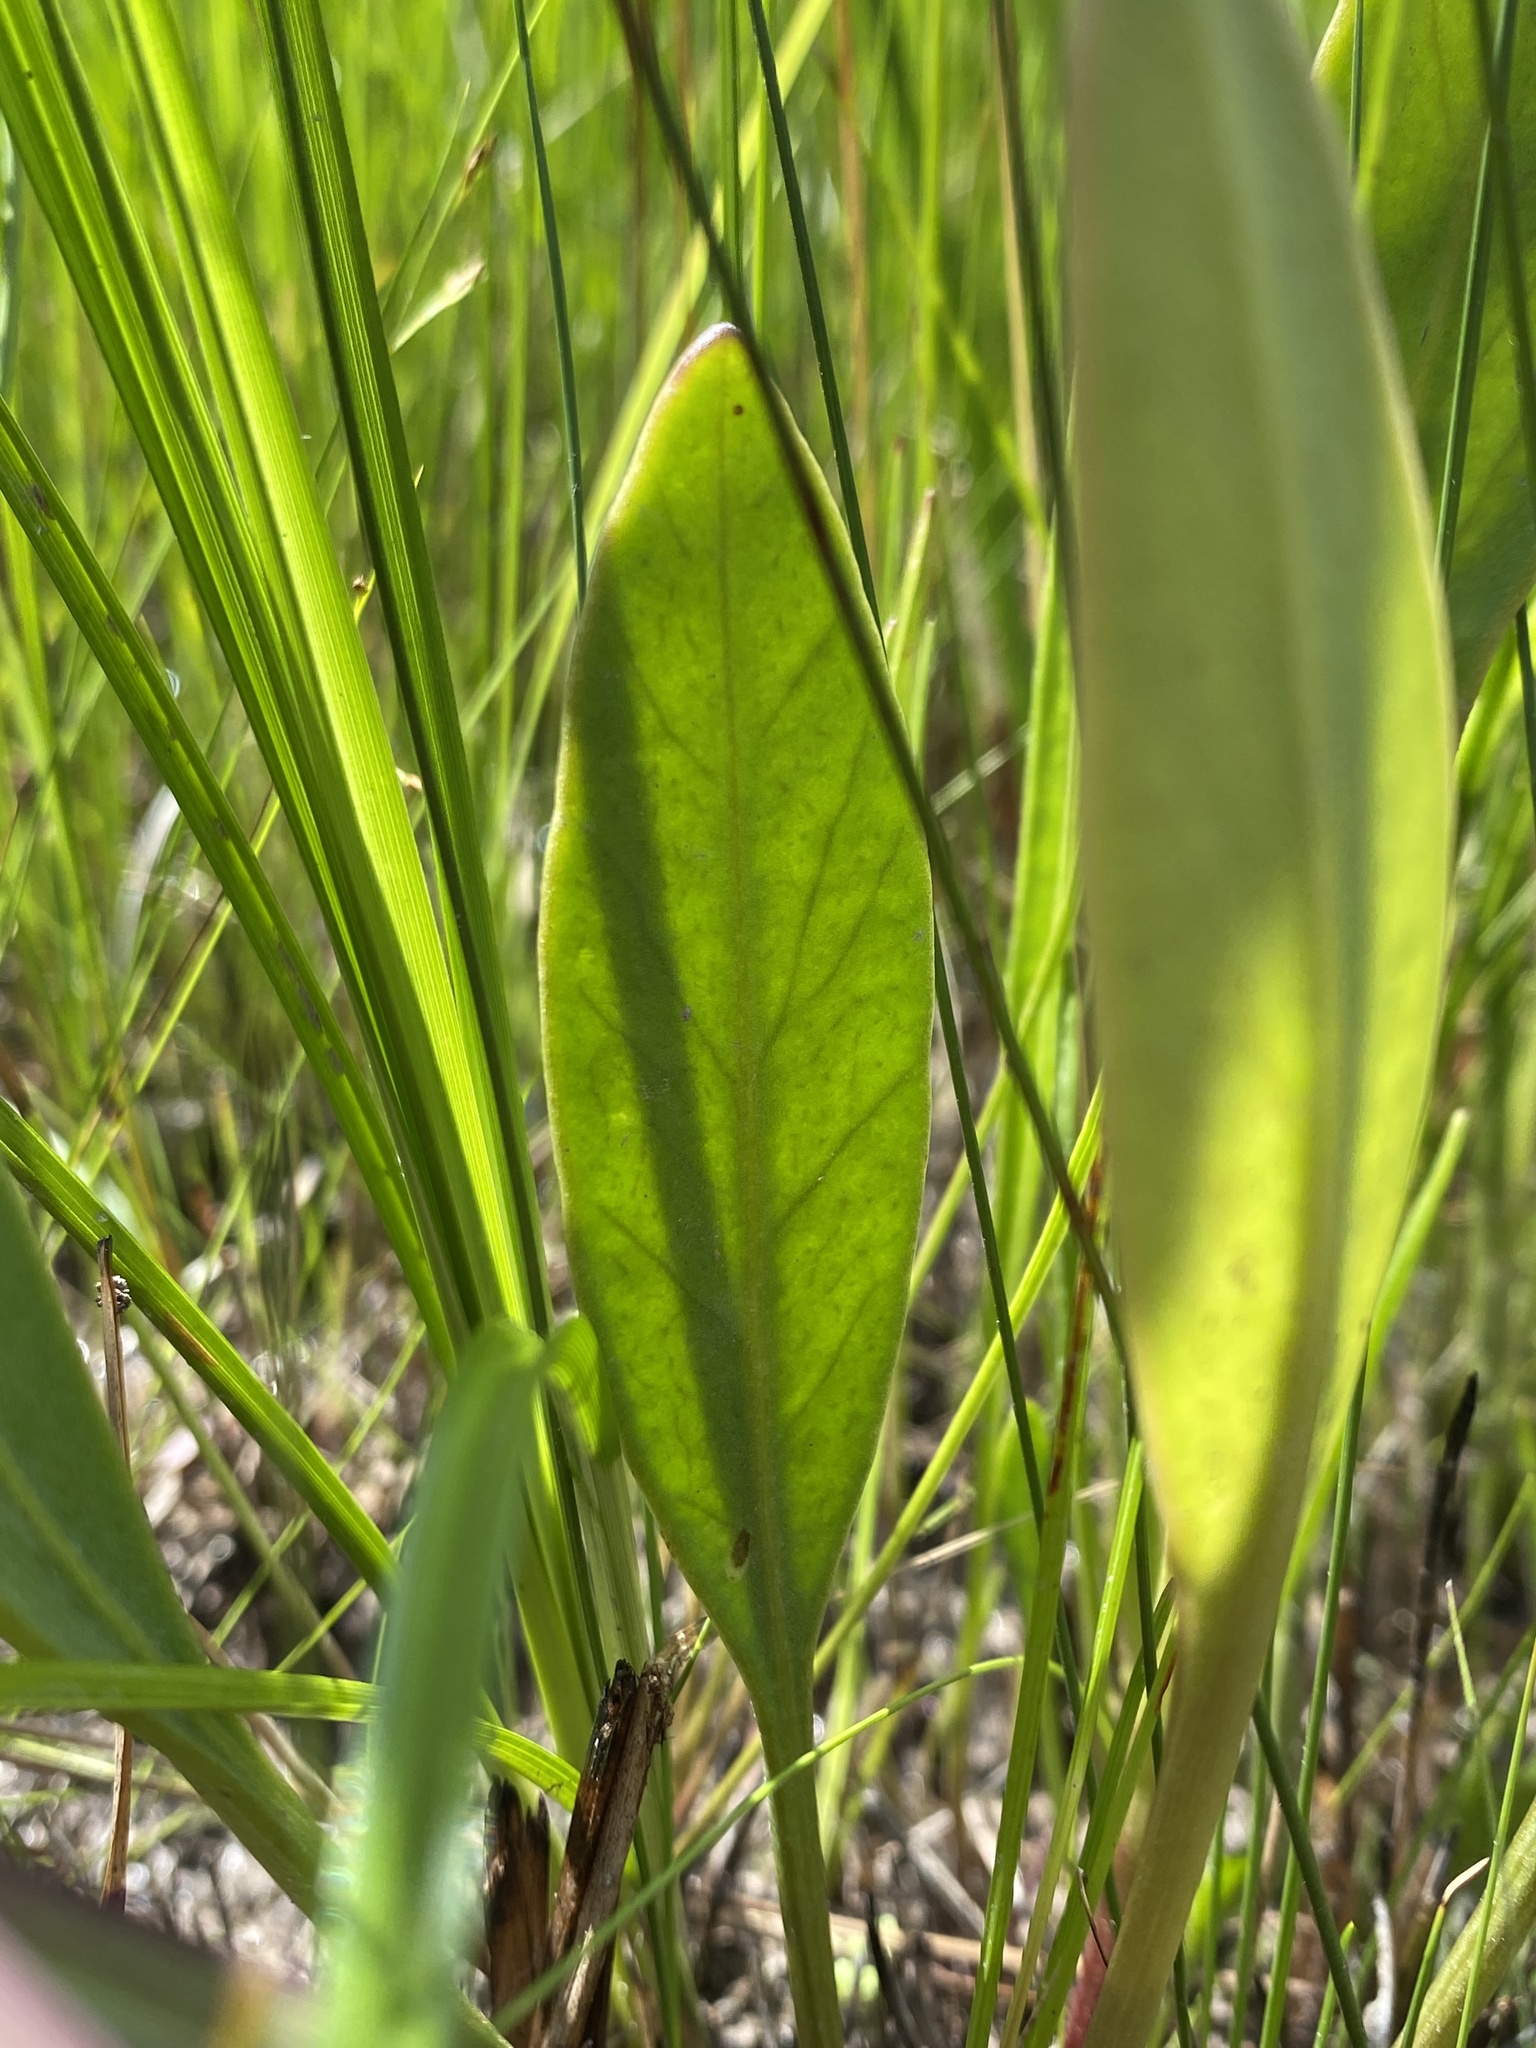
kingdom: Plantae
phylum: Tracheophyta
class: Magnoliopsida
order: Asterales
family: Asteraceae
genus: Coreopsis
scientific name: Coreopsis gladiata
